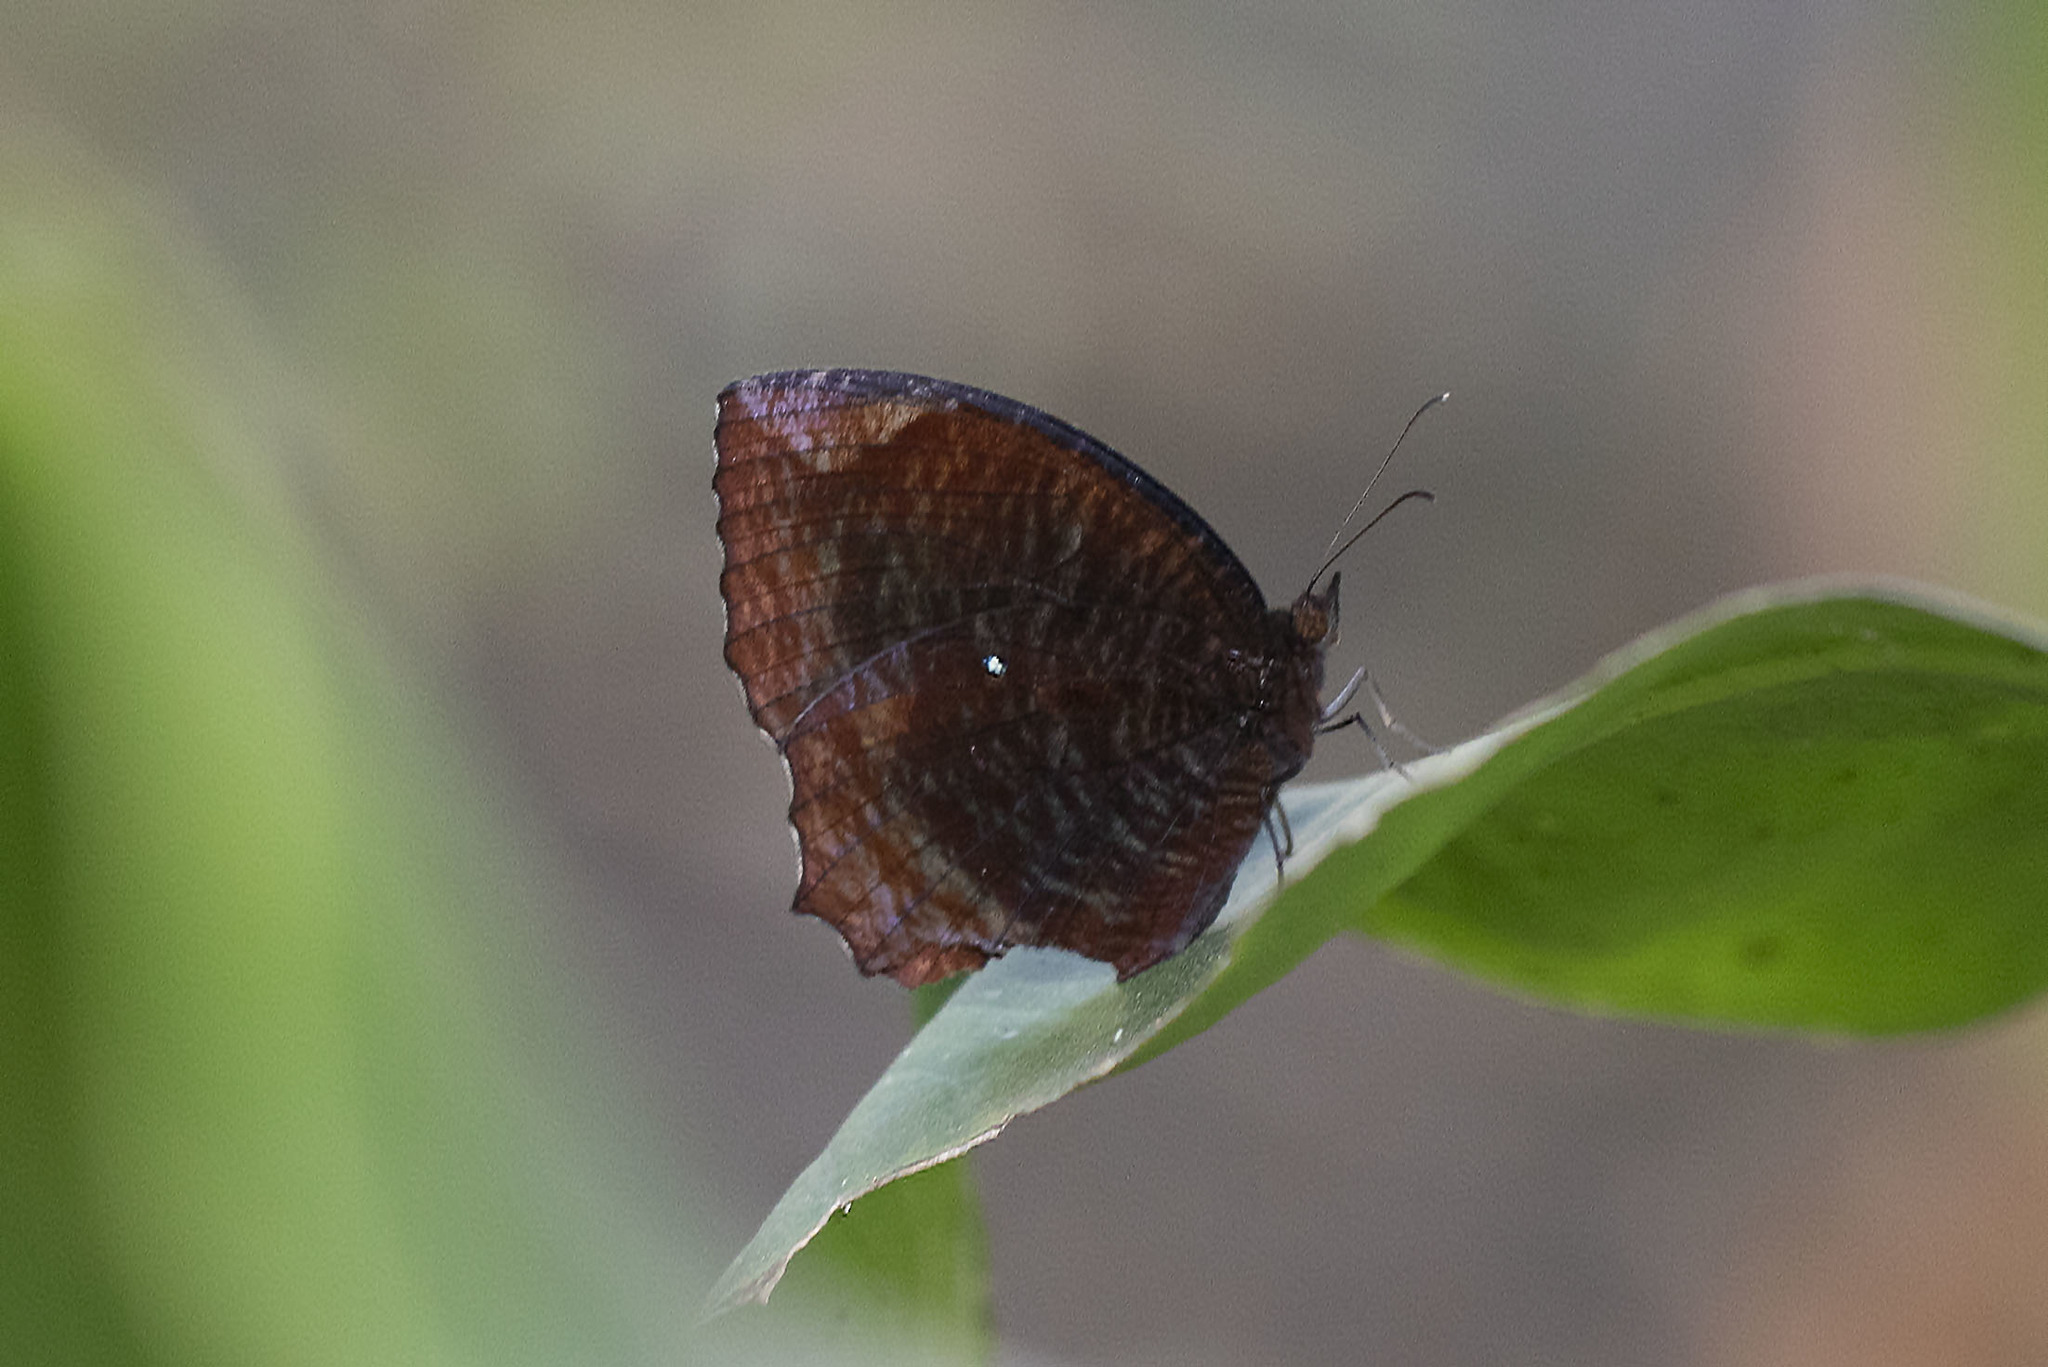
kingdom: Animalia
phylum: Arthropoda
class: Insecta
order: Lepidoptera
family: Nymphalidae
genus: Elymnias
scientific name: Elymnias hypermnestra
